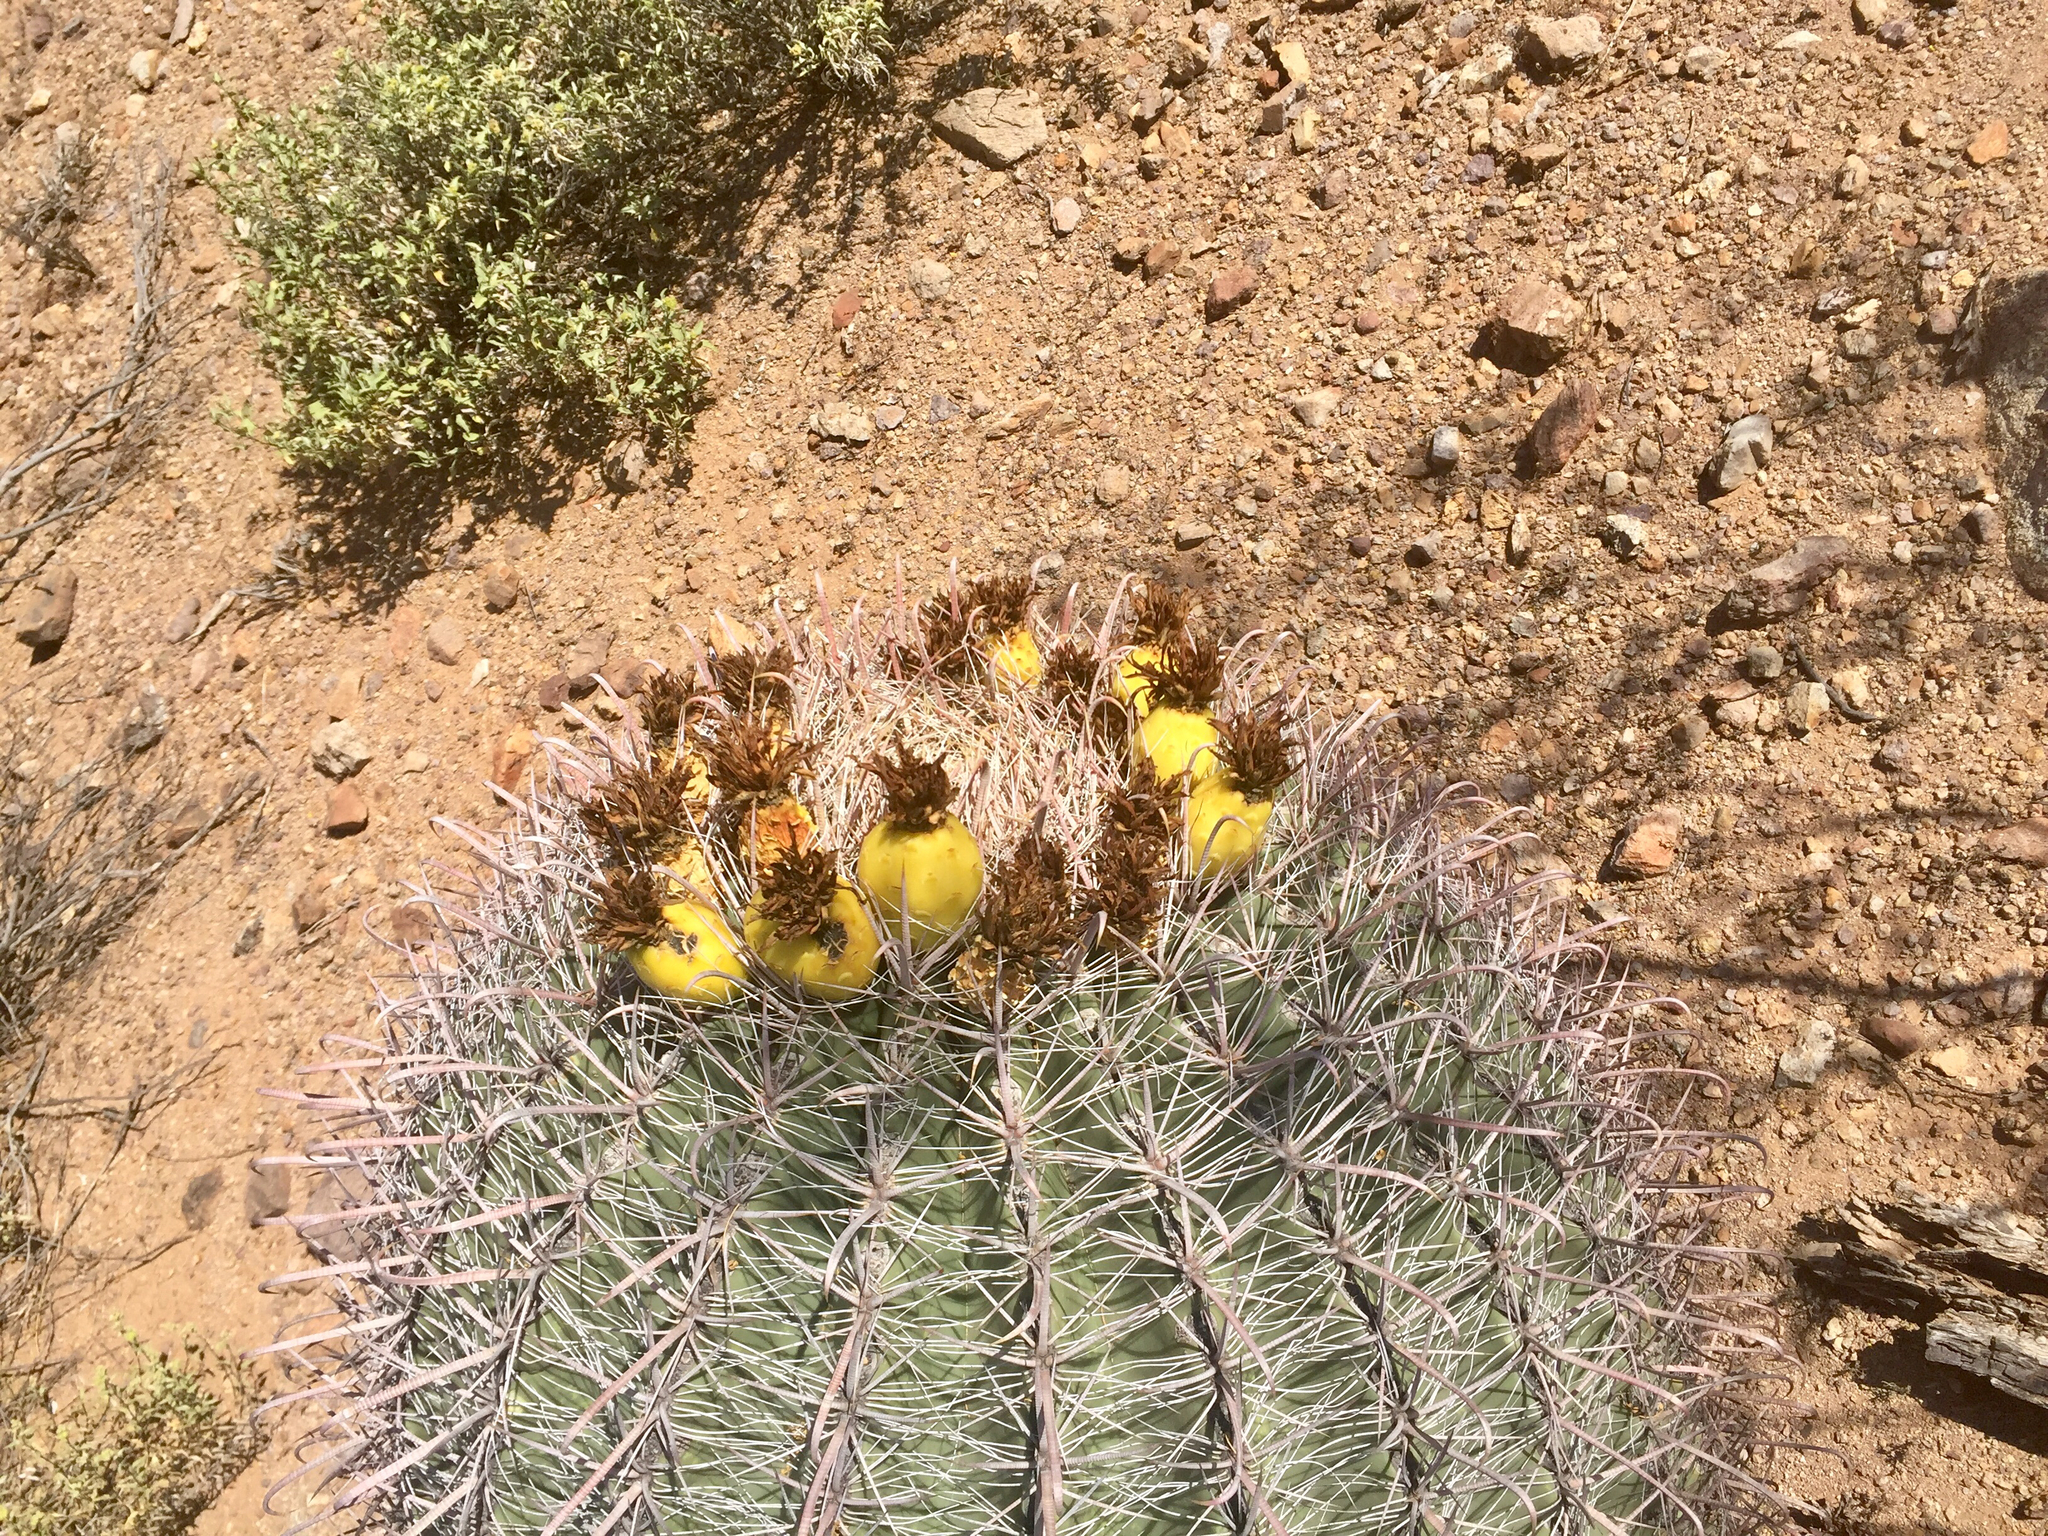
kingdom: Plantae
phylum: Tracheophyta
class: Magnoliopsida
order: Caryophyllales
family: Cactaceae
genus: Ferocactus
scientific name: Ferocactus wislizeni
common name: Candy barrel cactus
